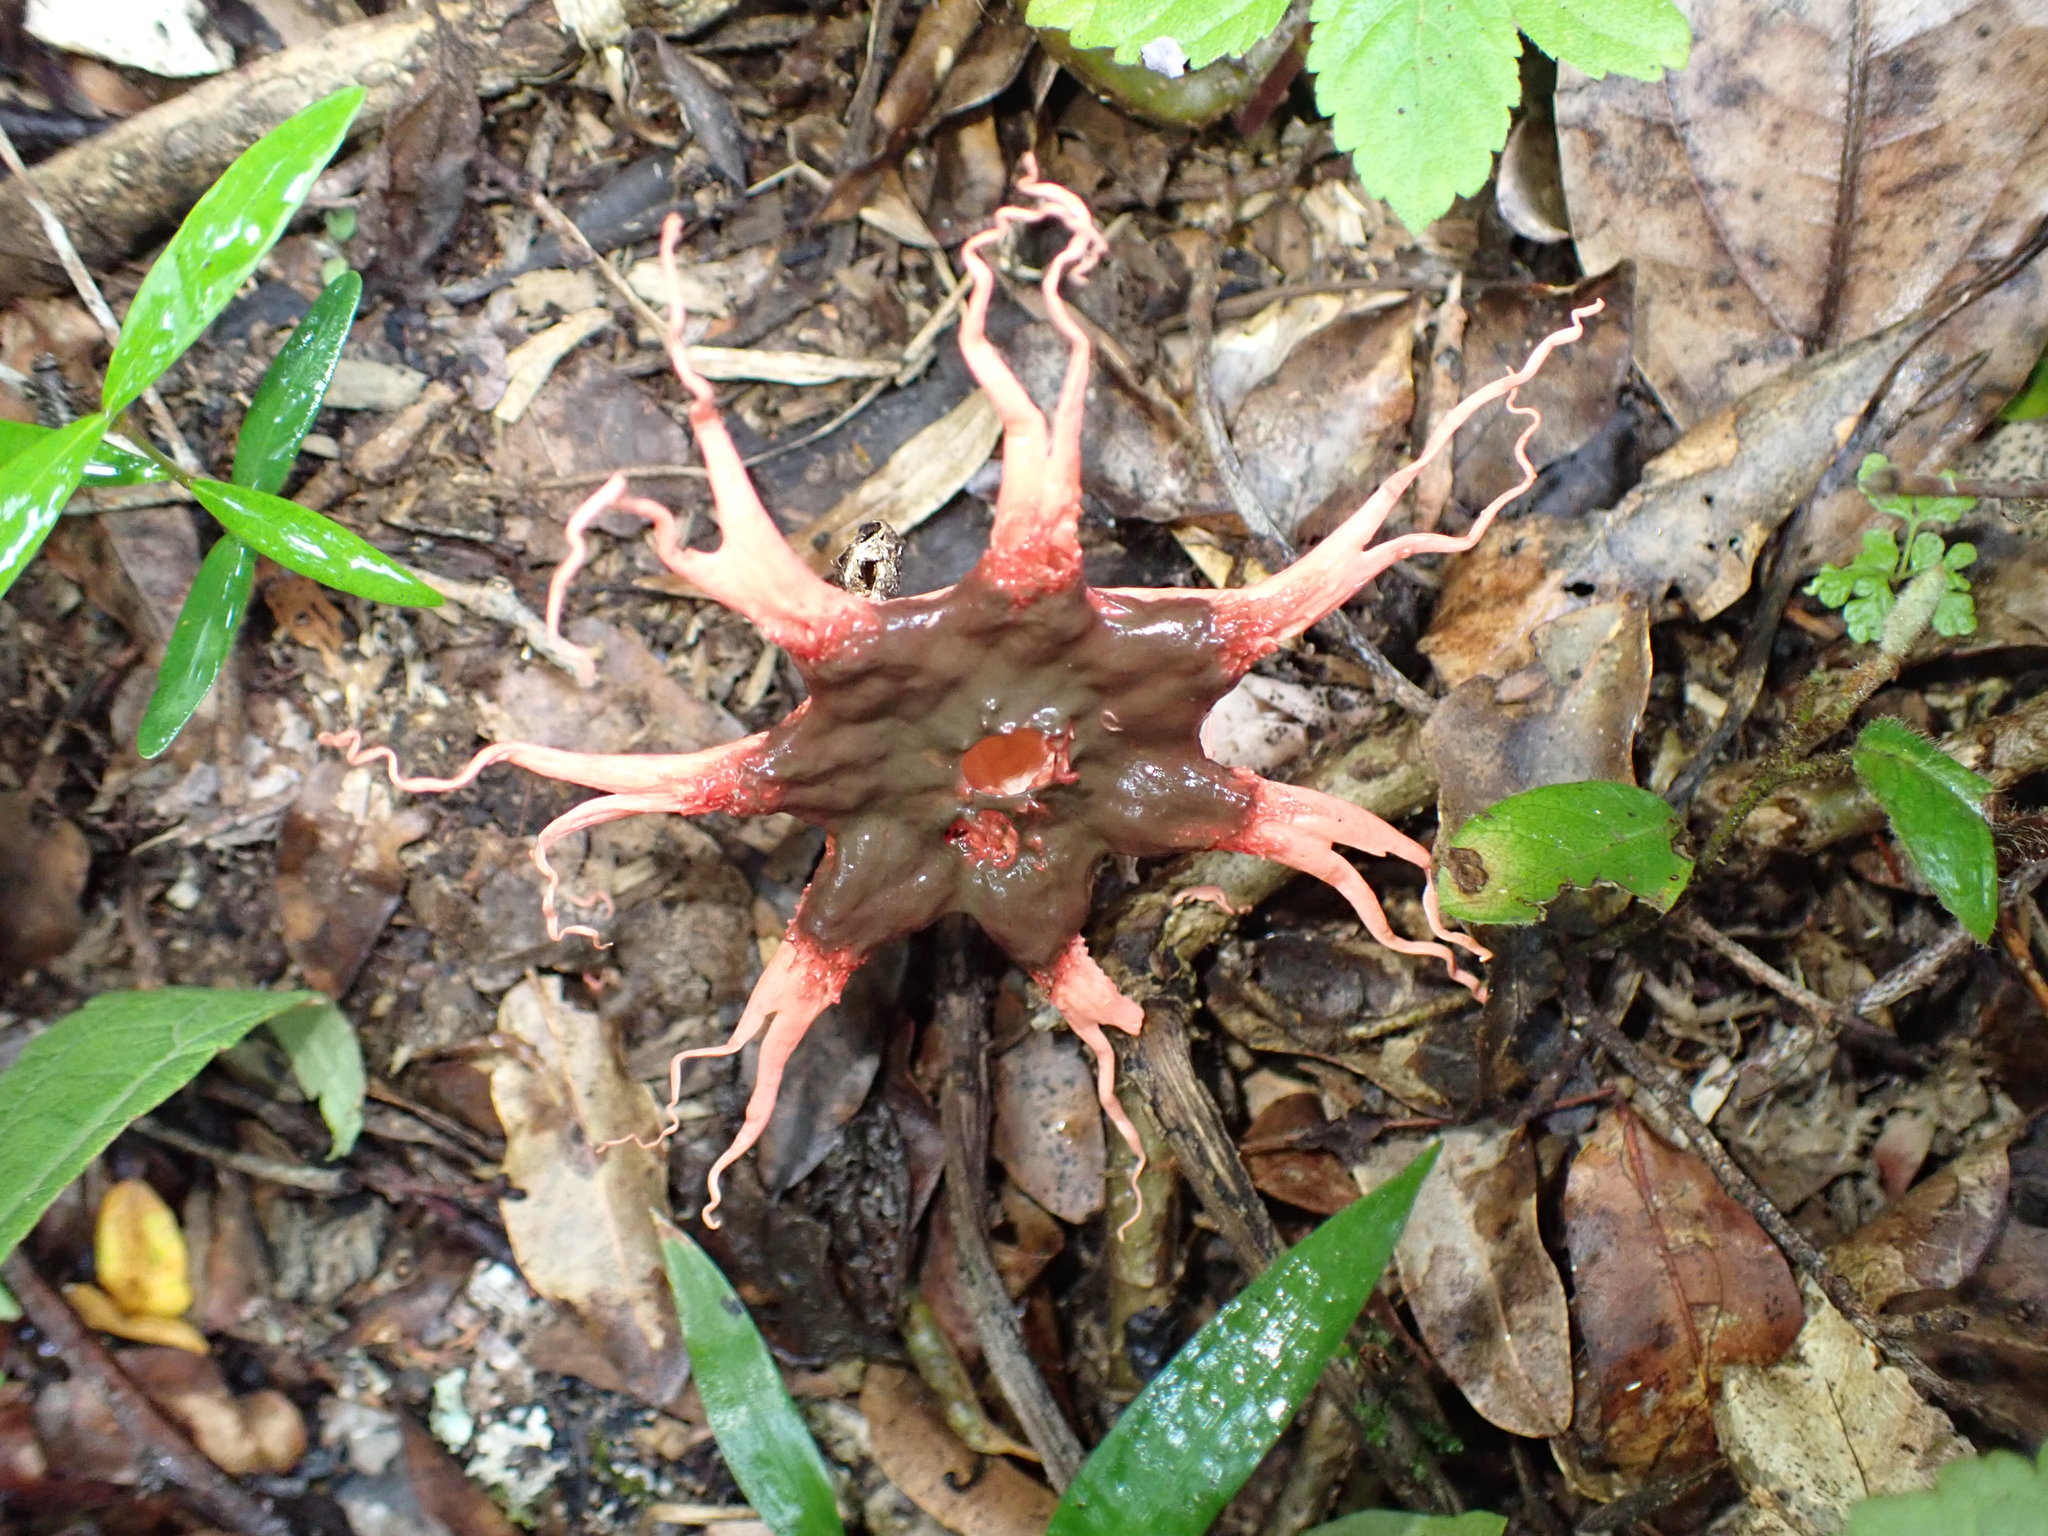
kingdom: Fungi
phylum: Basidiomycota
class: Agaricomycetes
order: Phallales
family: Phallaceae
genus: Aseroe
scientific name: Aseroe rubra
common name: Starfish fungus
